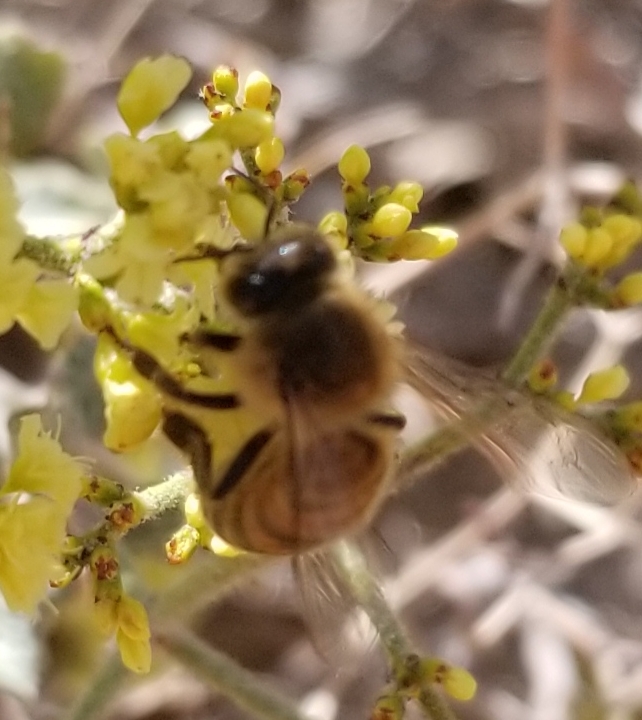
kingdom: Animalia
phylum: Arthropoda
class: Insecta
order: Hymenoptera
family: Apidae
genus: Apis
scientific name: Apis mellifera
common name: Honey bee
